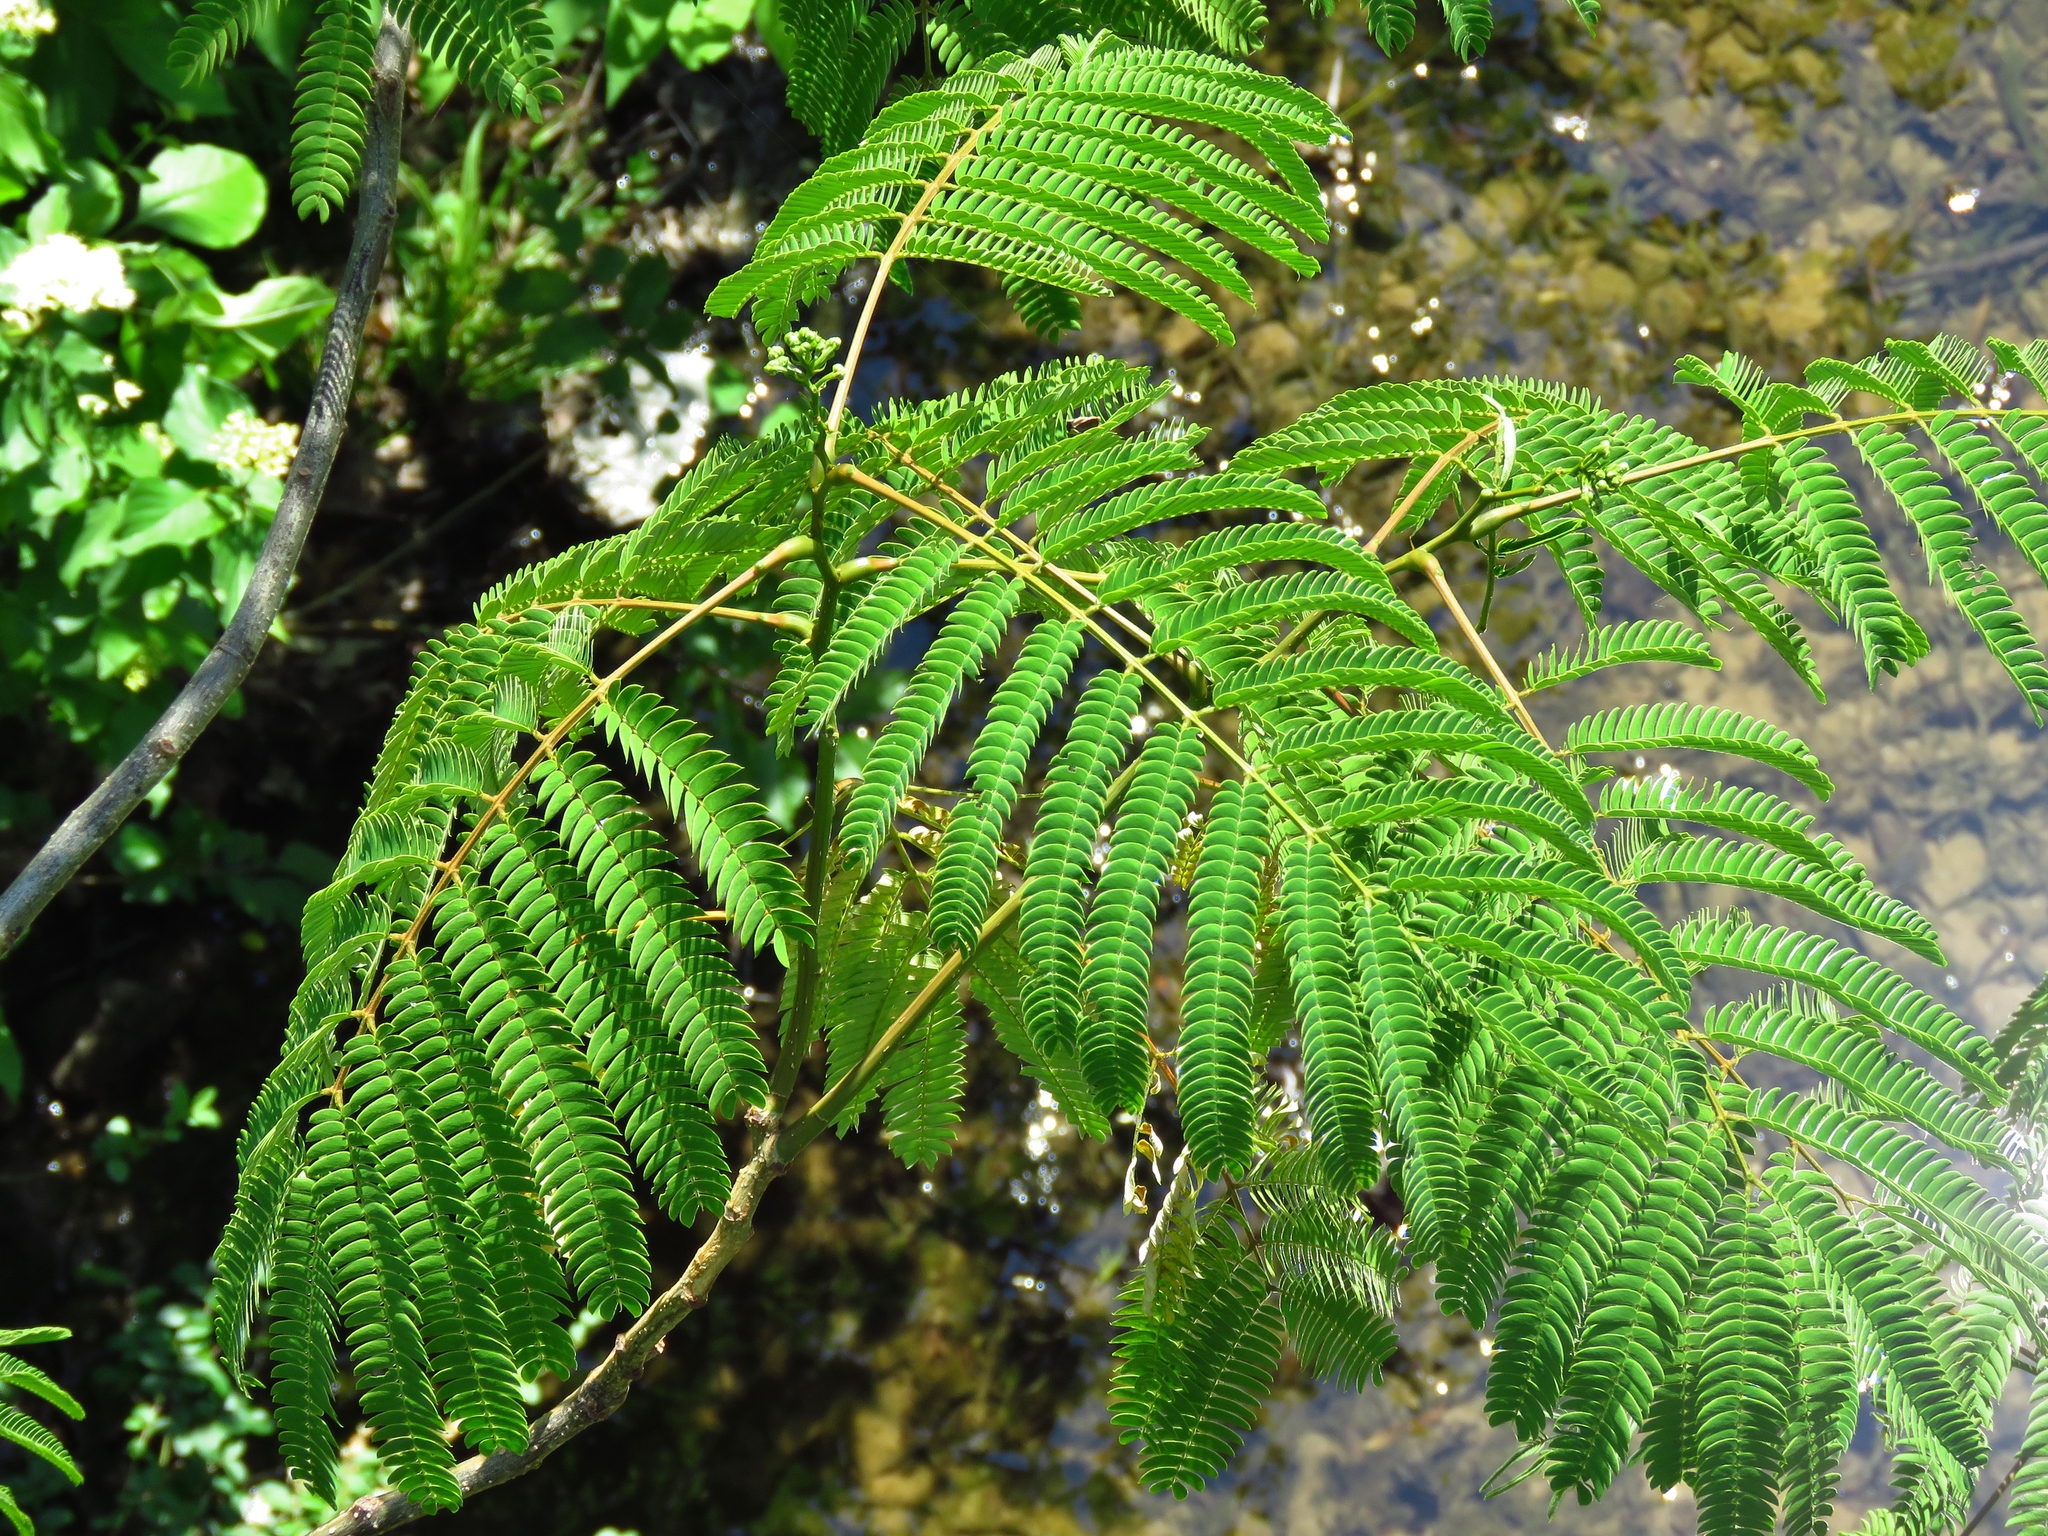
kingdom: Plantae
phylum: Tracheophyta
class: Magnoliopsida
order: Fabales
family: Fabaceae
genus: Albizia
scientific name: Albizia julibrissin
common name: Silktree
